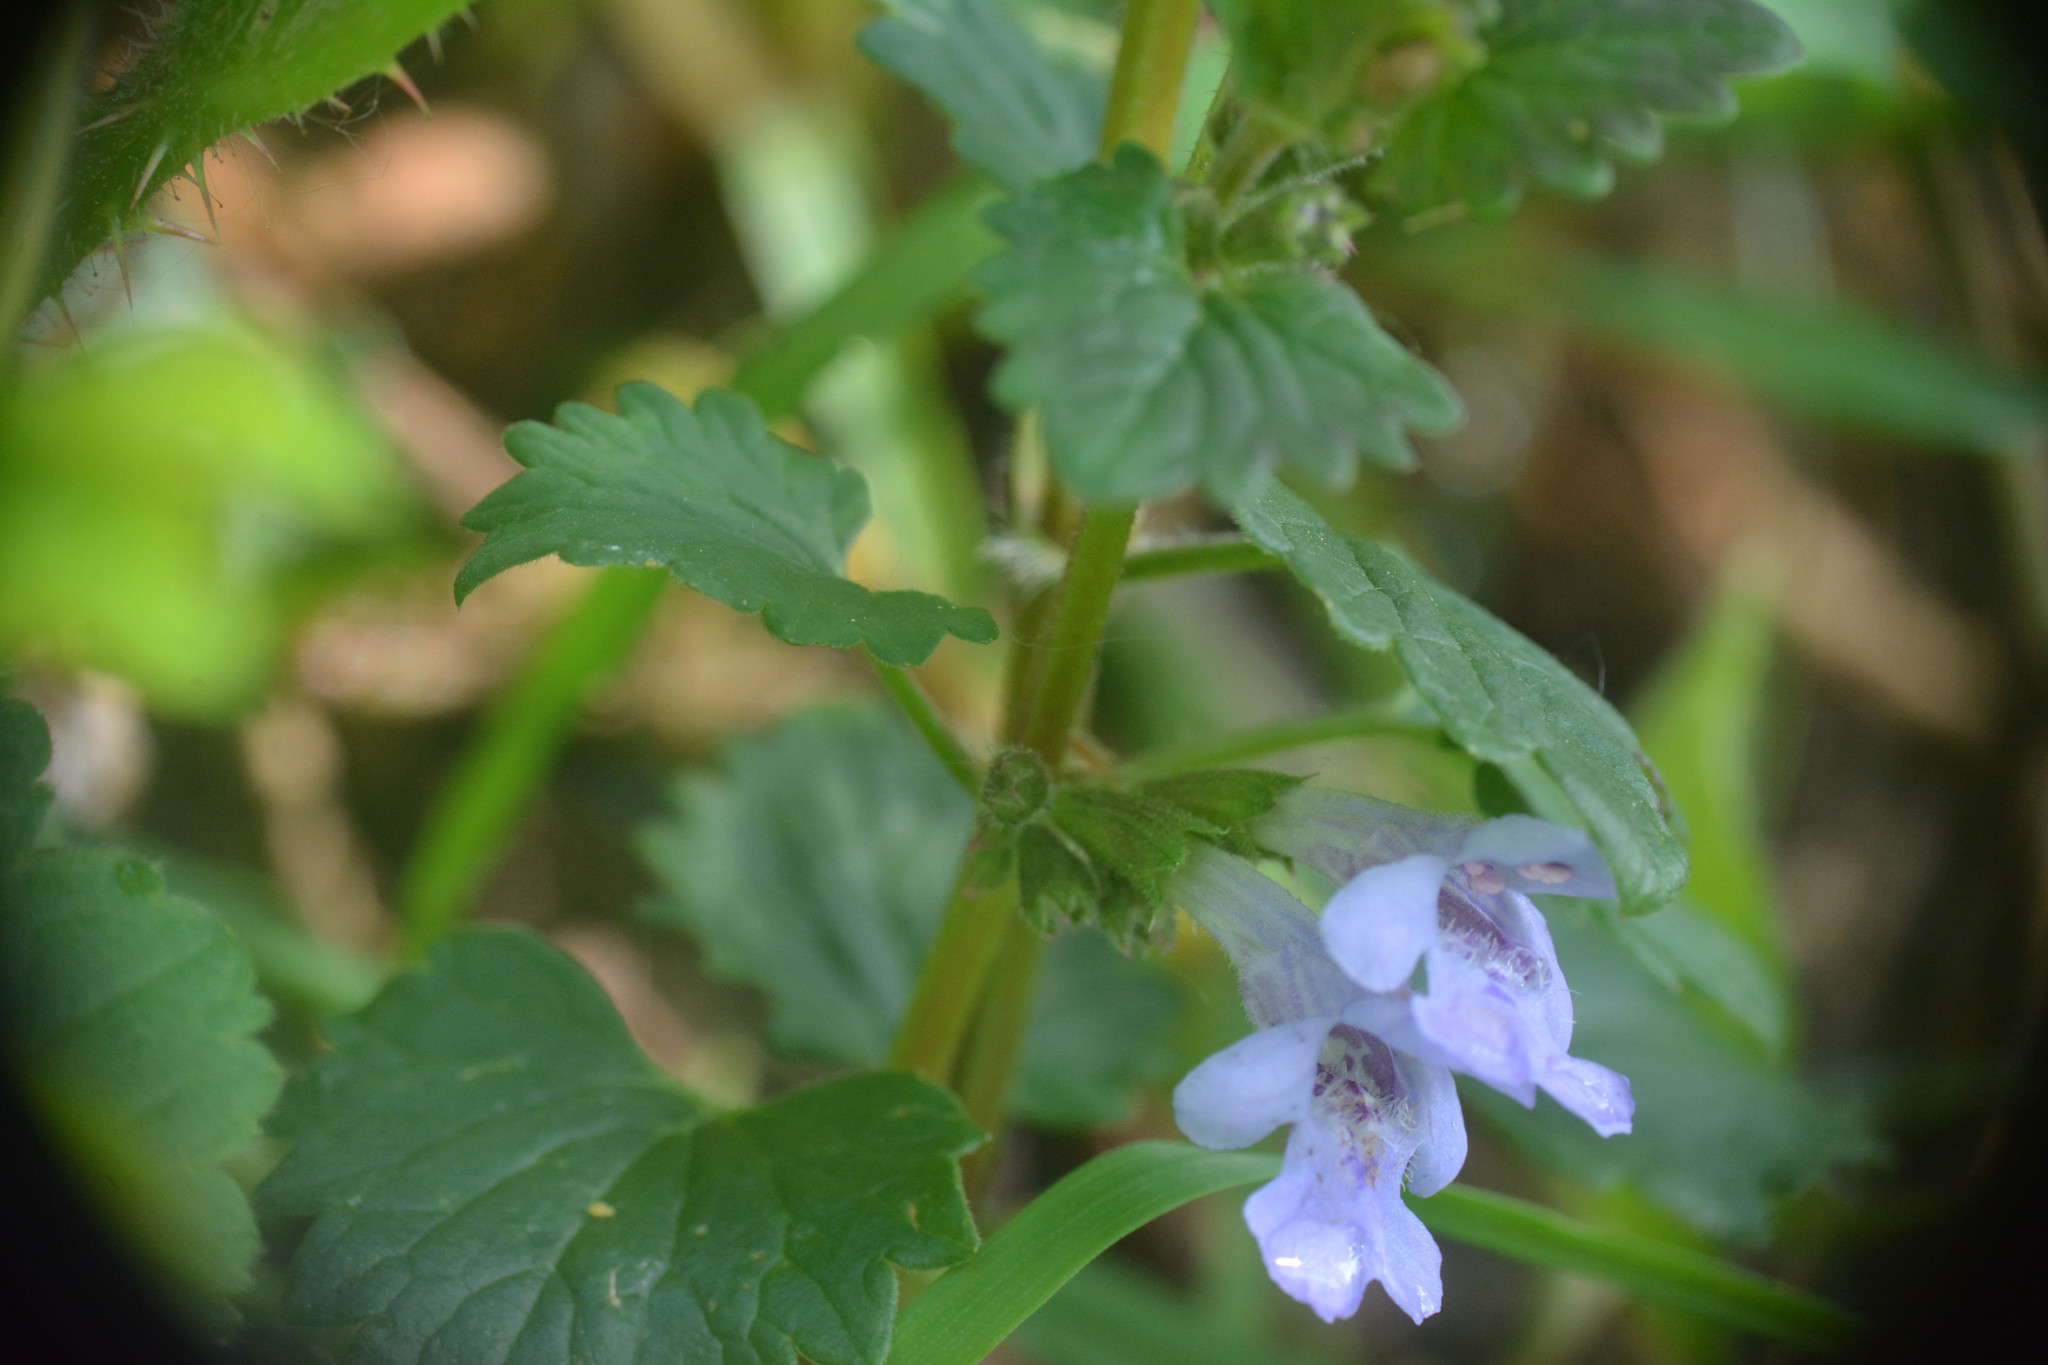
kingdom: Plantae
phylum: Tracheophyta
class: Magnoliopsida
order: Lamiales
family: Lamiaceae
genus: Glechoma
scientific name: Glechoma hederacea
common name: Ground ivy
